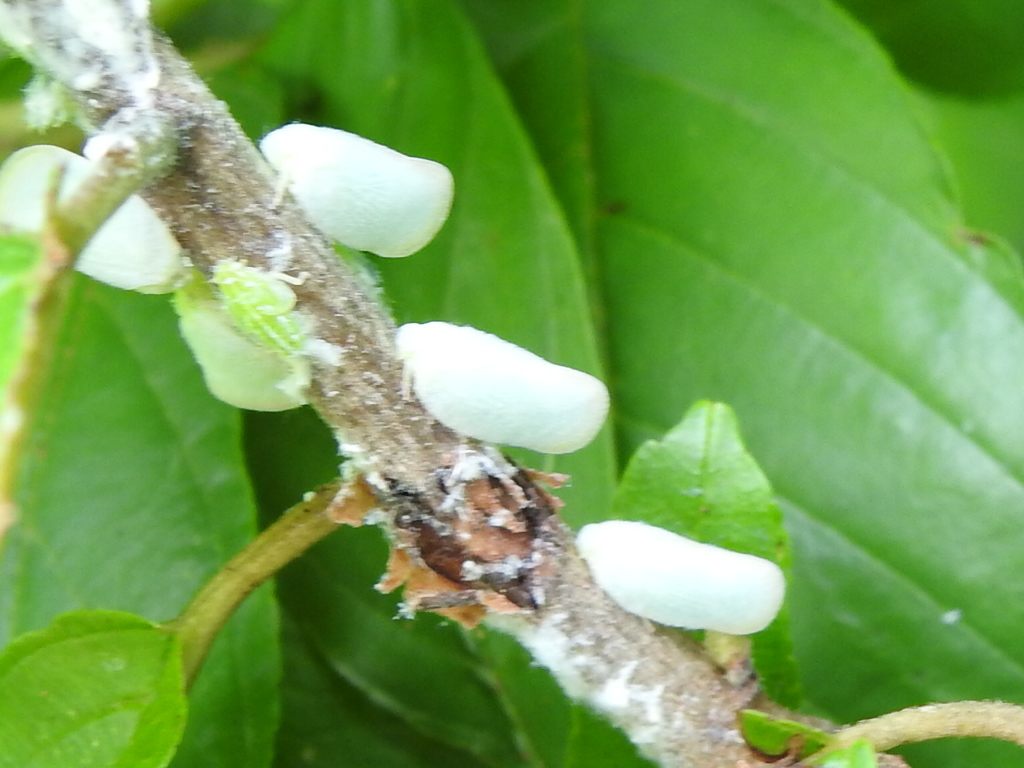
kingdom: Animalia
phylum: Arthropoda
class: Insecta
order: Hemiptera
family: Flatidae
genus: Ormenoides
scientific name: Ormenoides venusta
